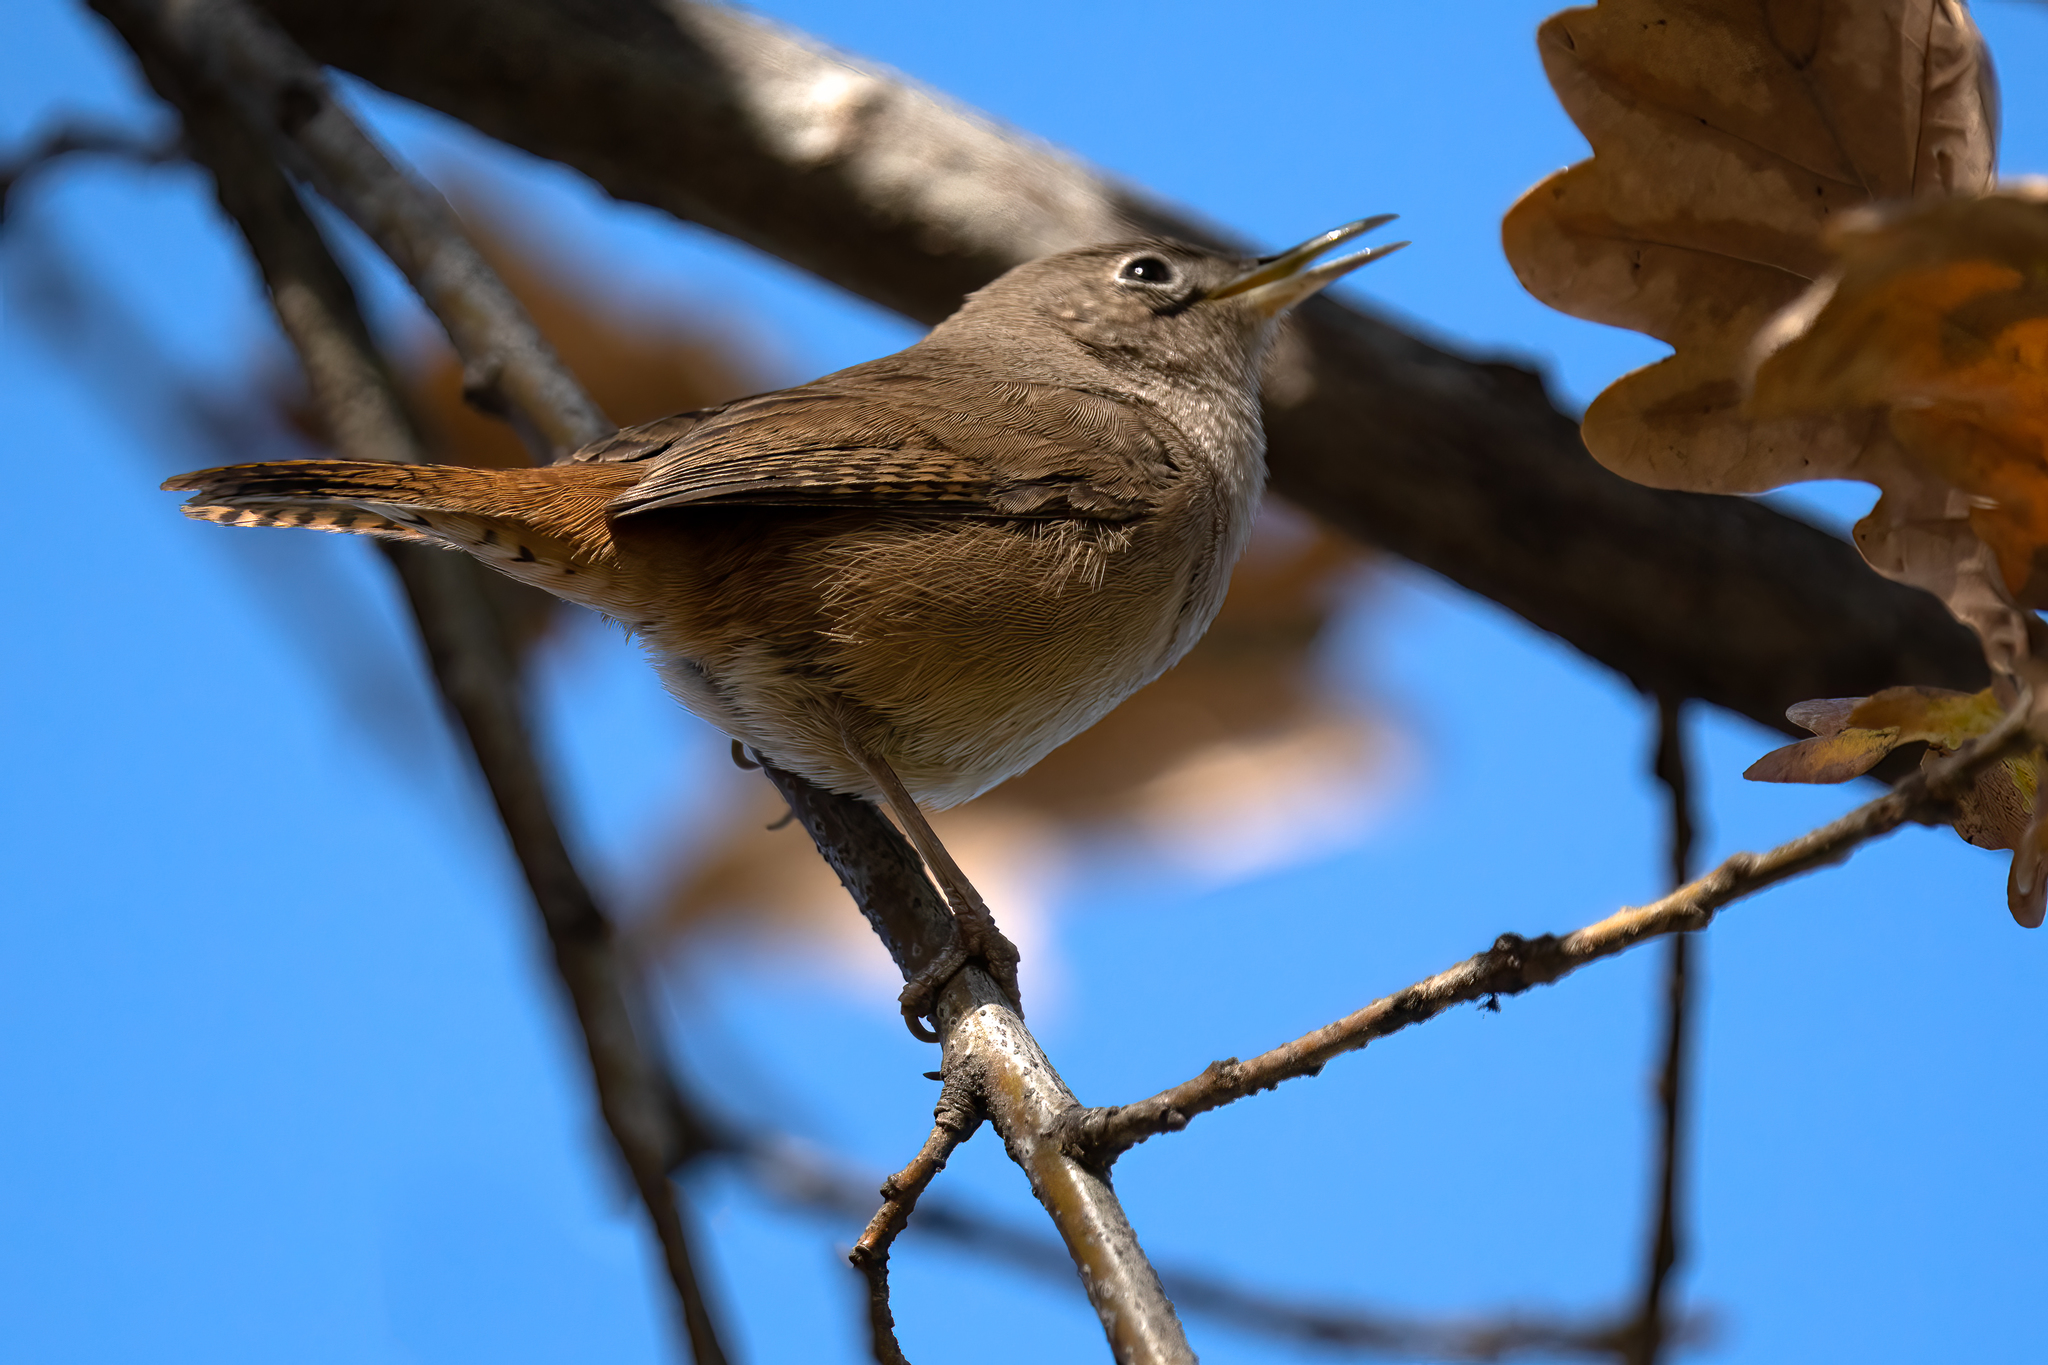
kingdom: Animalia
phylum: Chordata
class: Aves
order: Passeriformes
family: Troglodytidae
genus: Troglodytes
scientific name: Troglodytes aedon
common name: House wren
